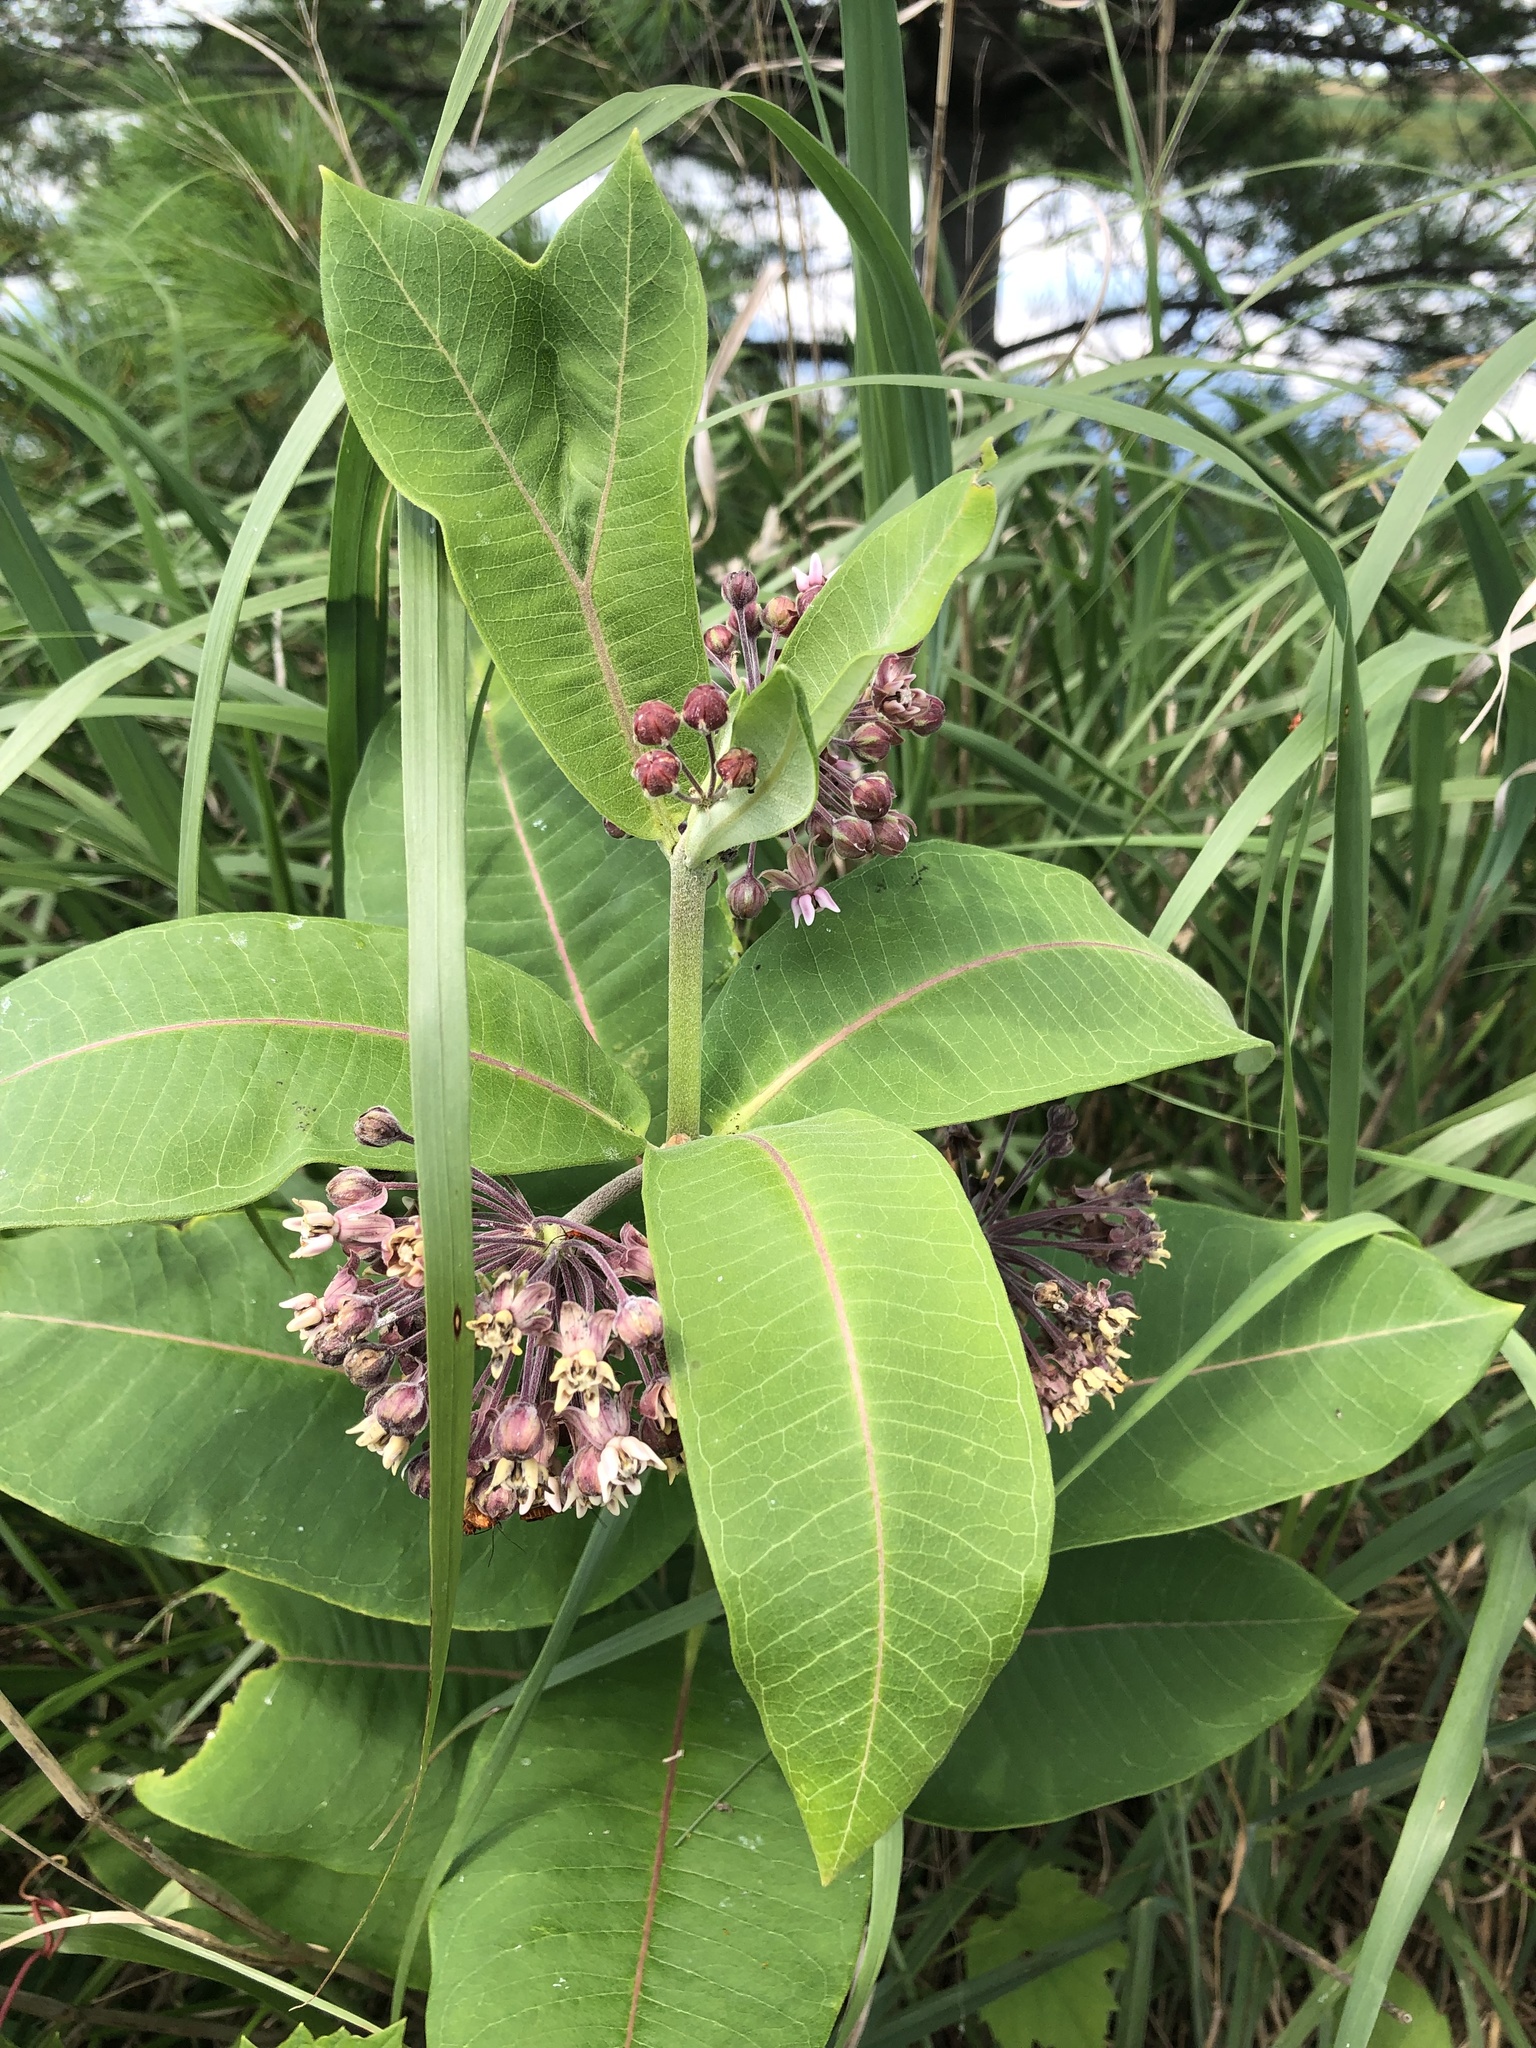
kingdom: Plantae
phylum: Tracheophyta
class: Magnoliopsida
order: Gentianales
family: Apocynaceae
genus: Asclepias
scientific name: Asclepias syriaca
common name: Common milkweed
